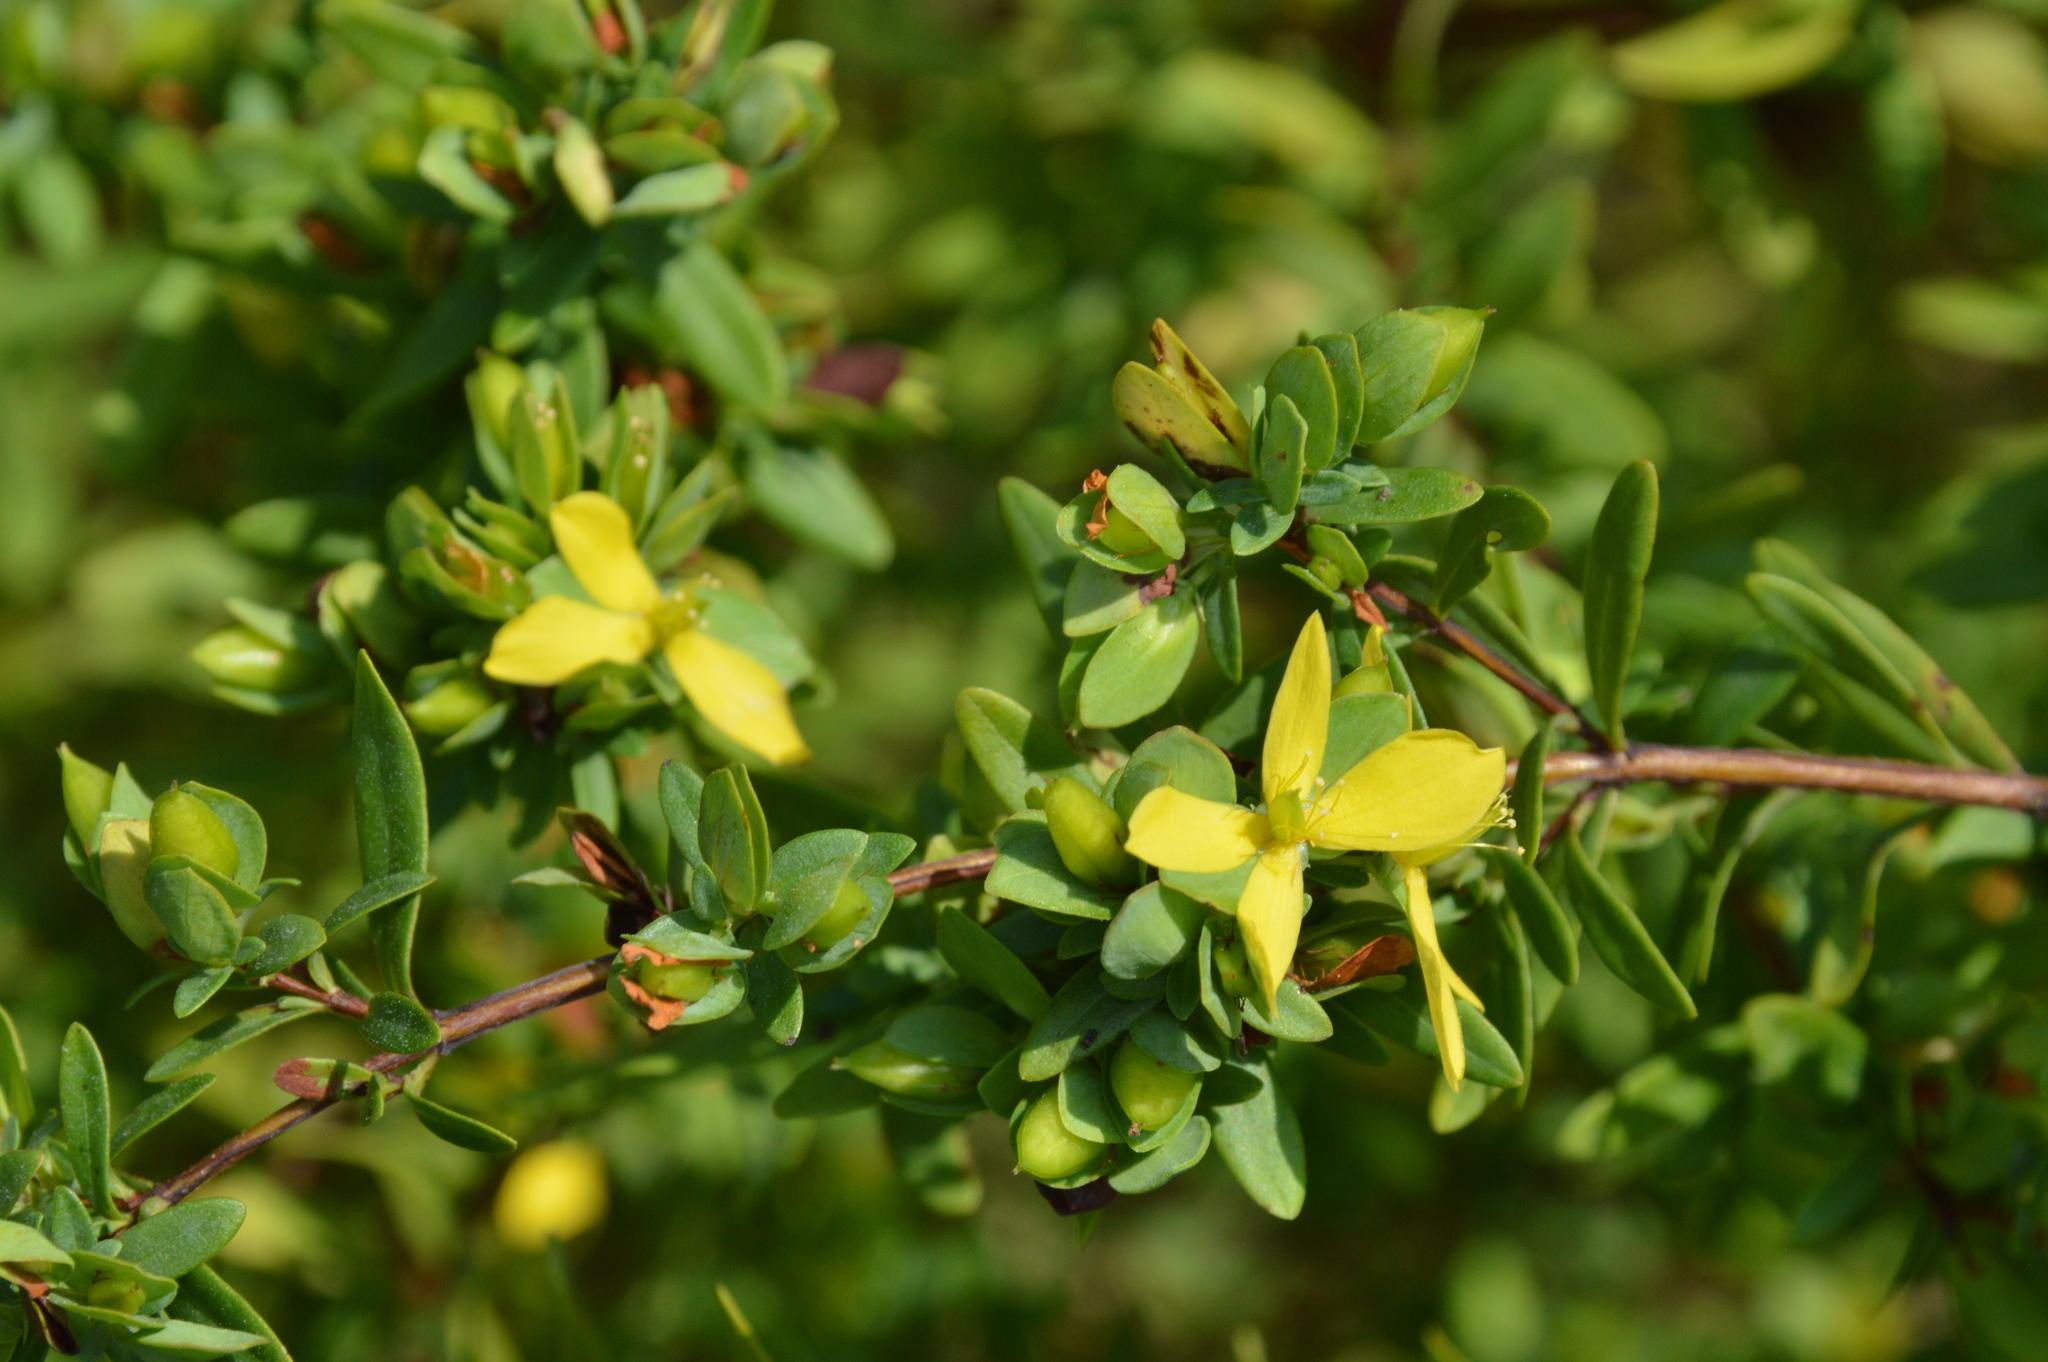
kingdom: Plantae
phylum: Tracheophyta
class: Magnoliopsida
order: Malpighiales
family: Hypericaceae
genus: Hypericum
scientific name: Hypericum hypericoides
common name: St. andrew's cross
